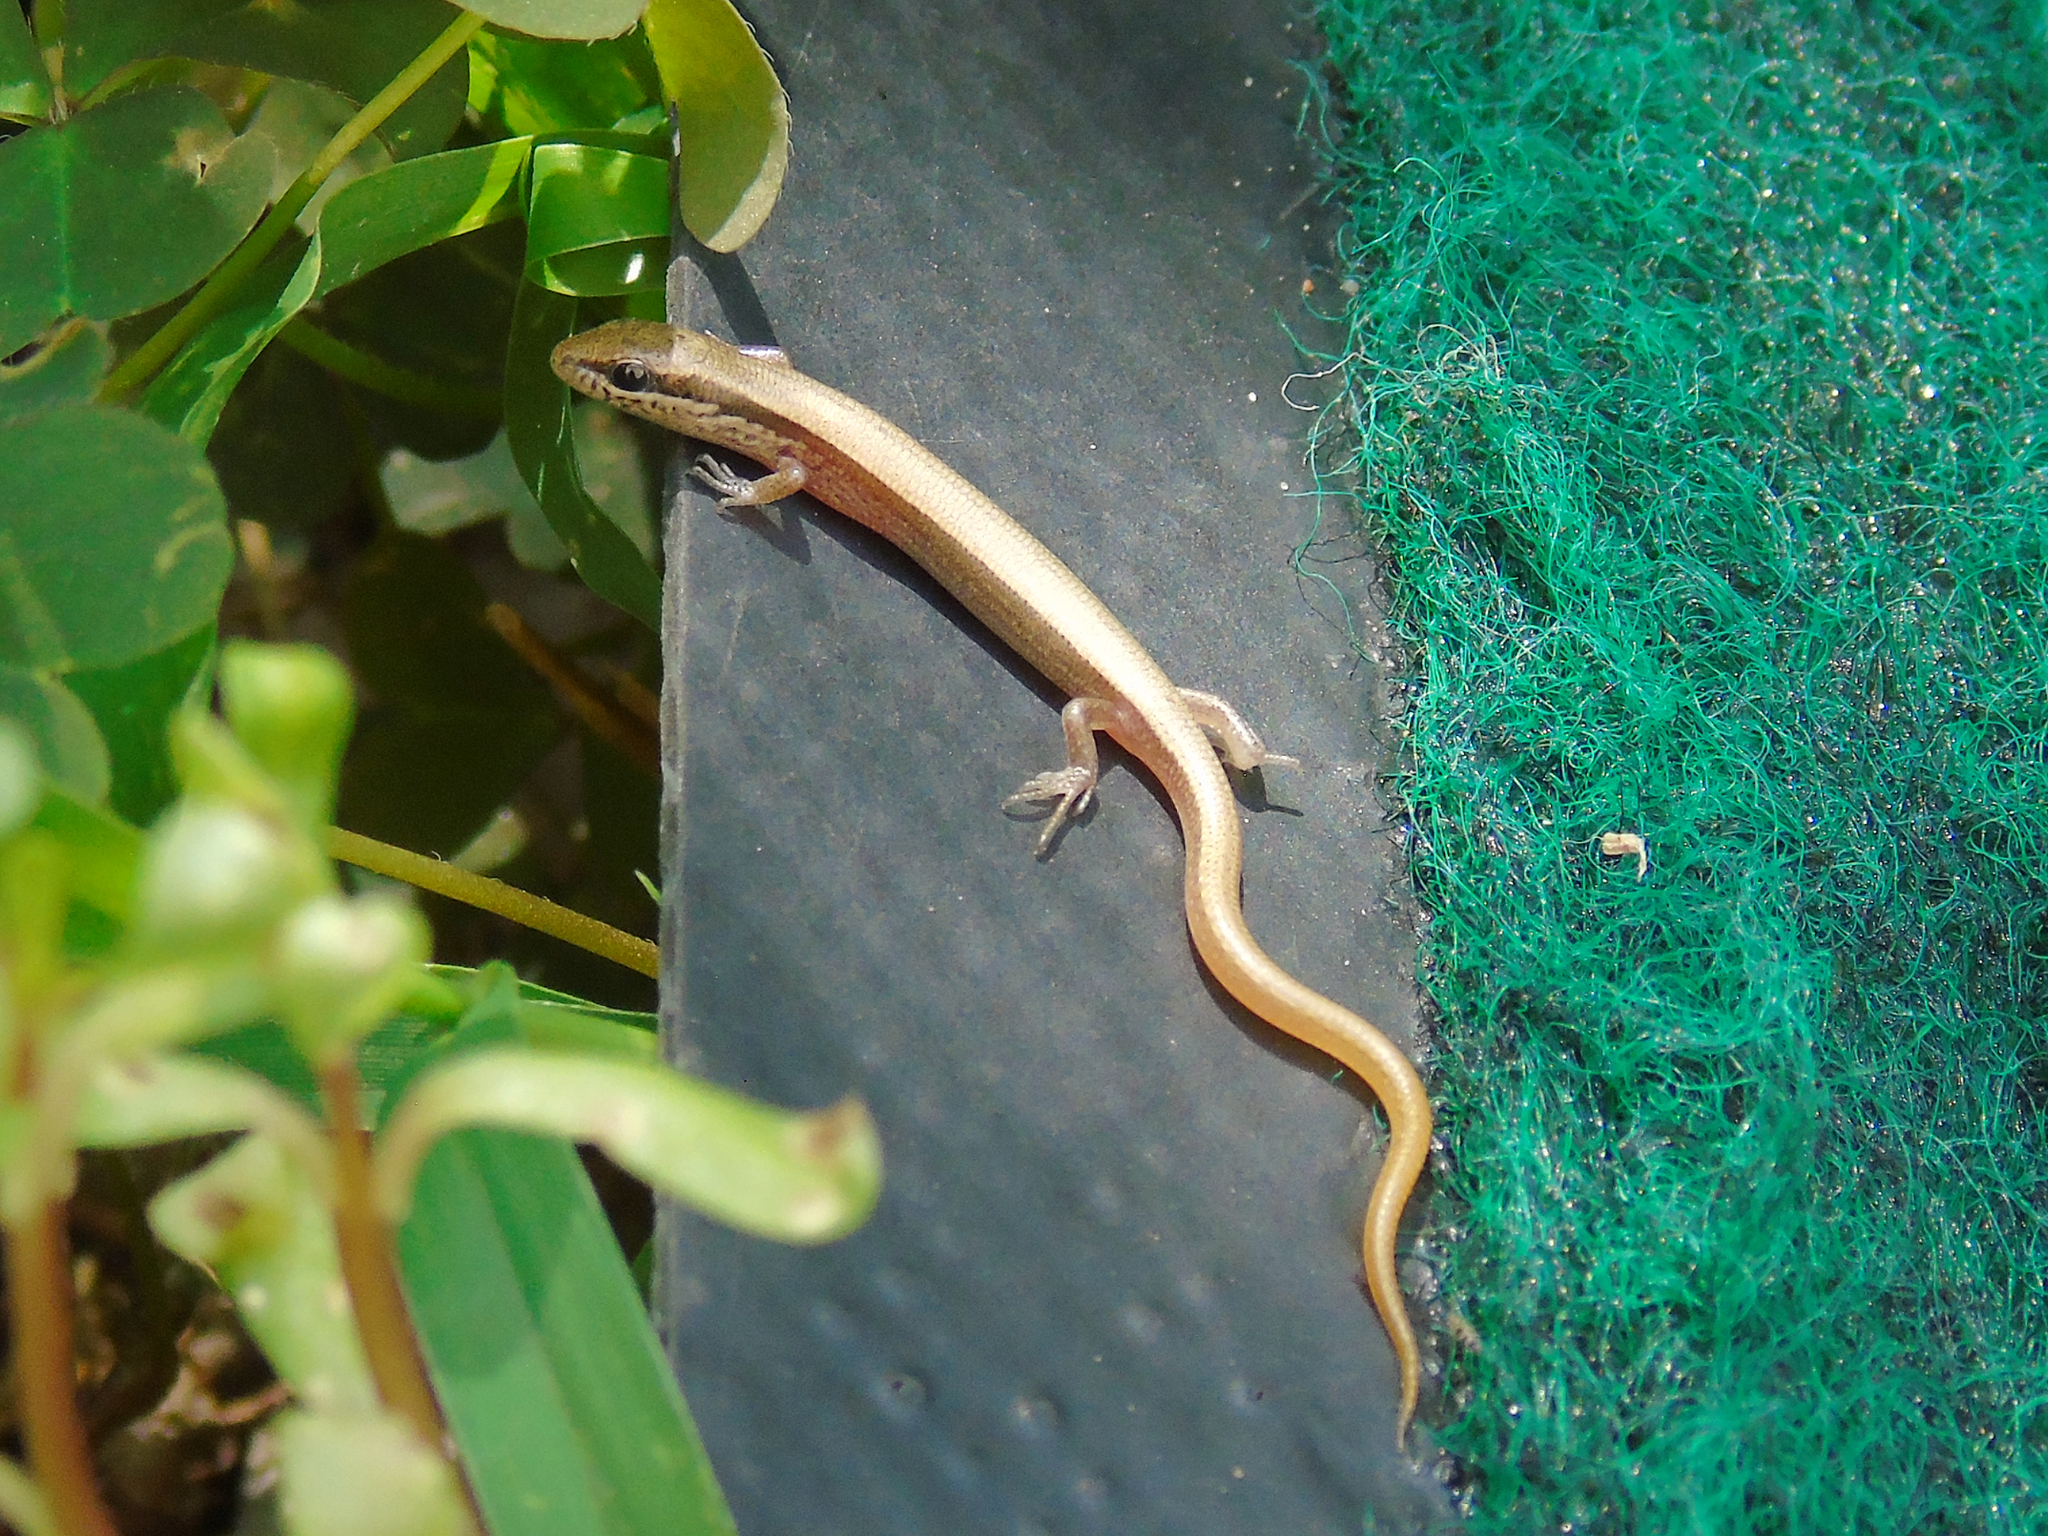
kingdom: Animalia
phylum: Chordata
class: Squamata
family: Scincidae
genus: Ablepharus
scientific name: Ablepharus deserti
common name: Desert lidless skink
